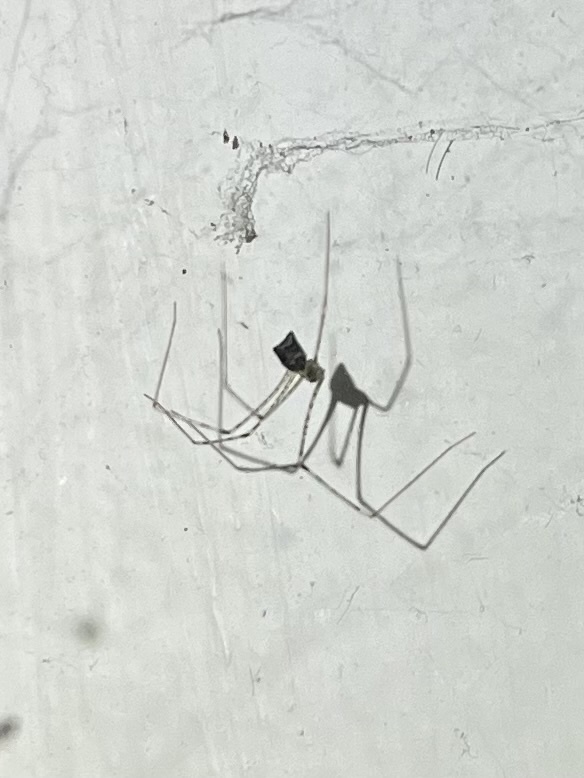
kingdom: Animalia
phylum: Arthropoda
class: Arachnida
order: Araneae
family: Pholcidae
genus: Crossopriza
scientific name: Crossopriza lyoni
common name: Cellar spiders
